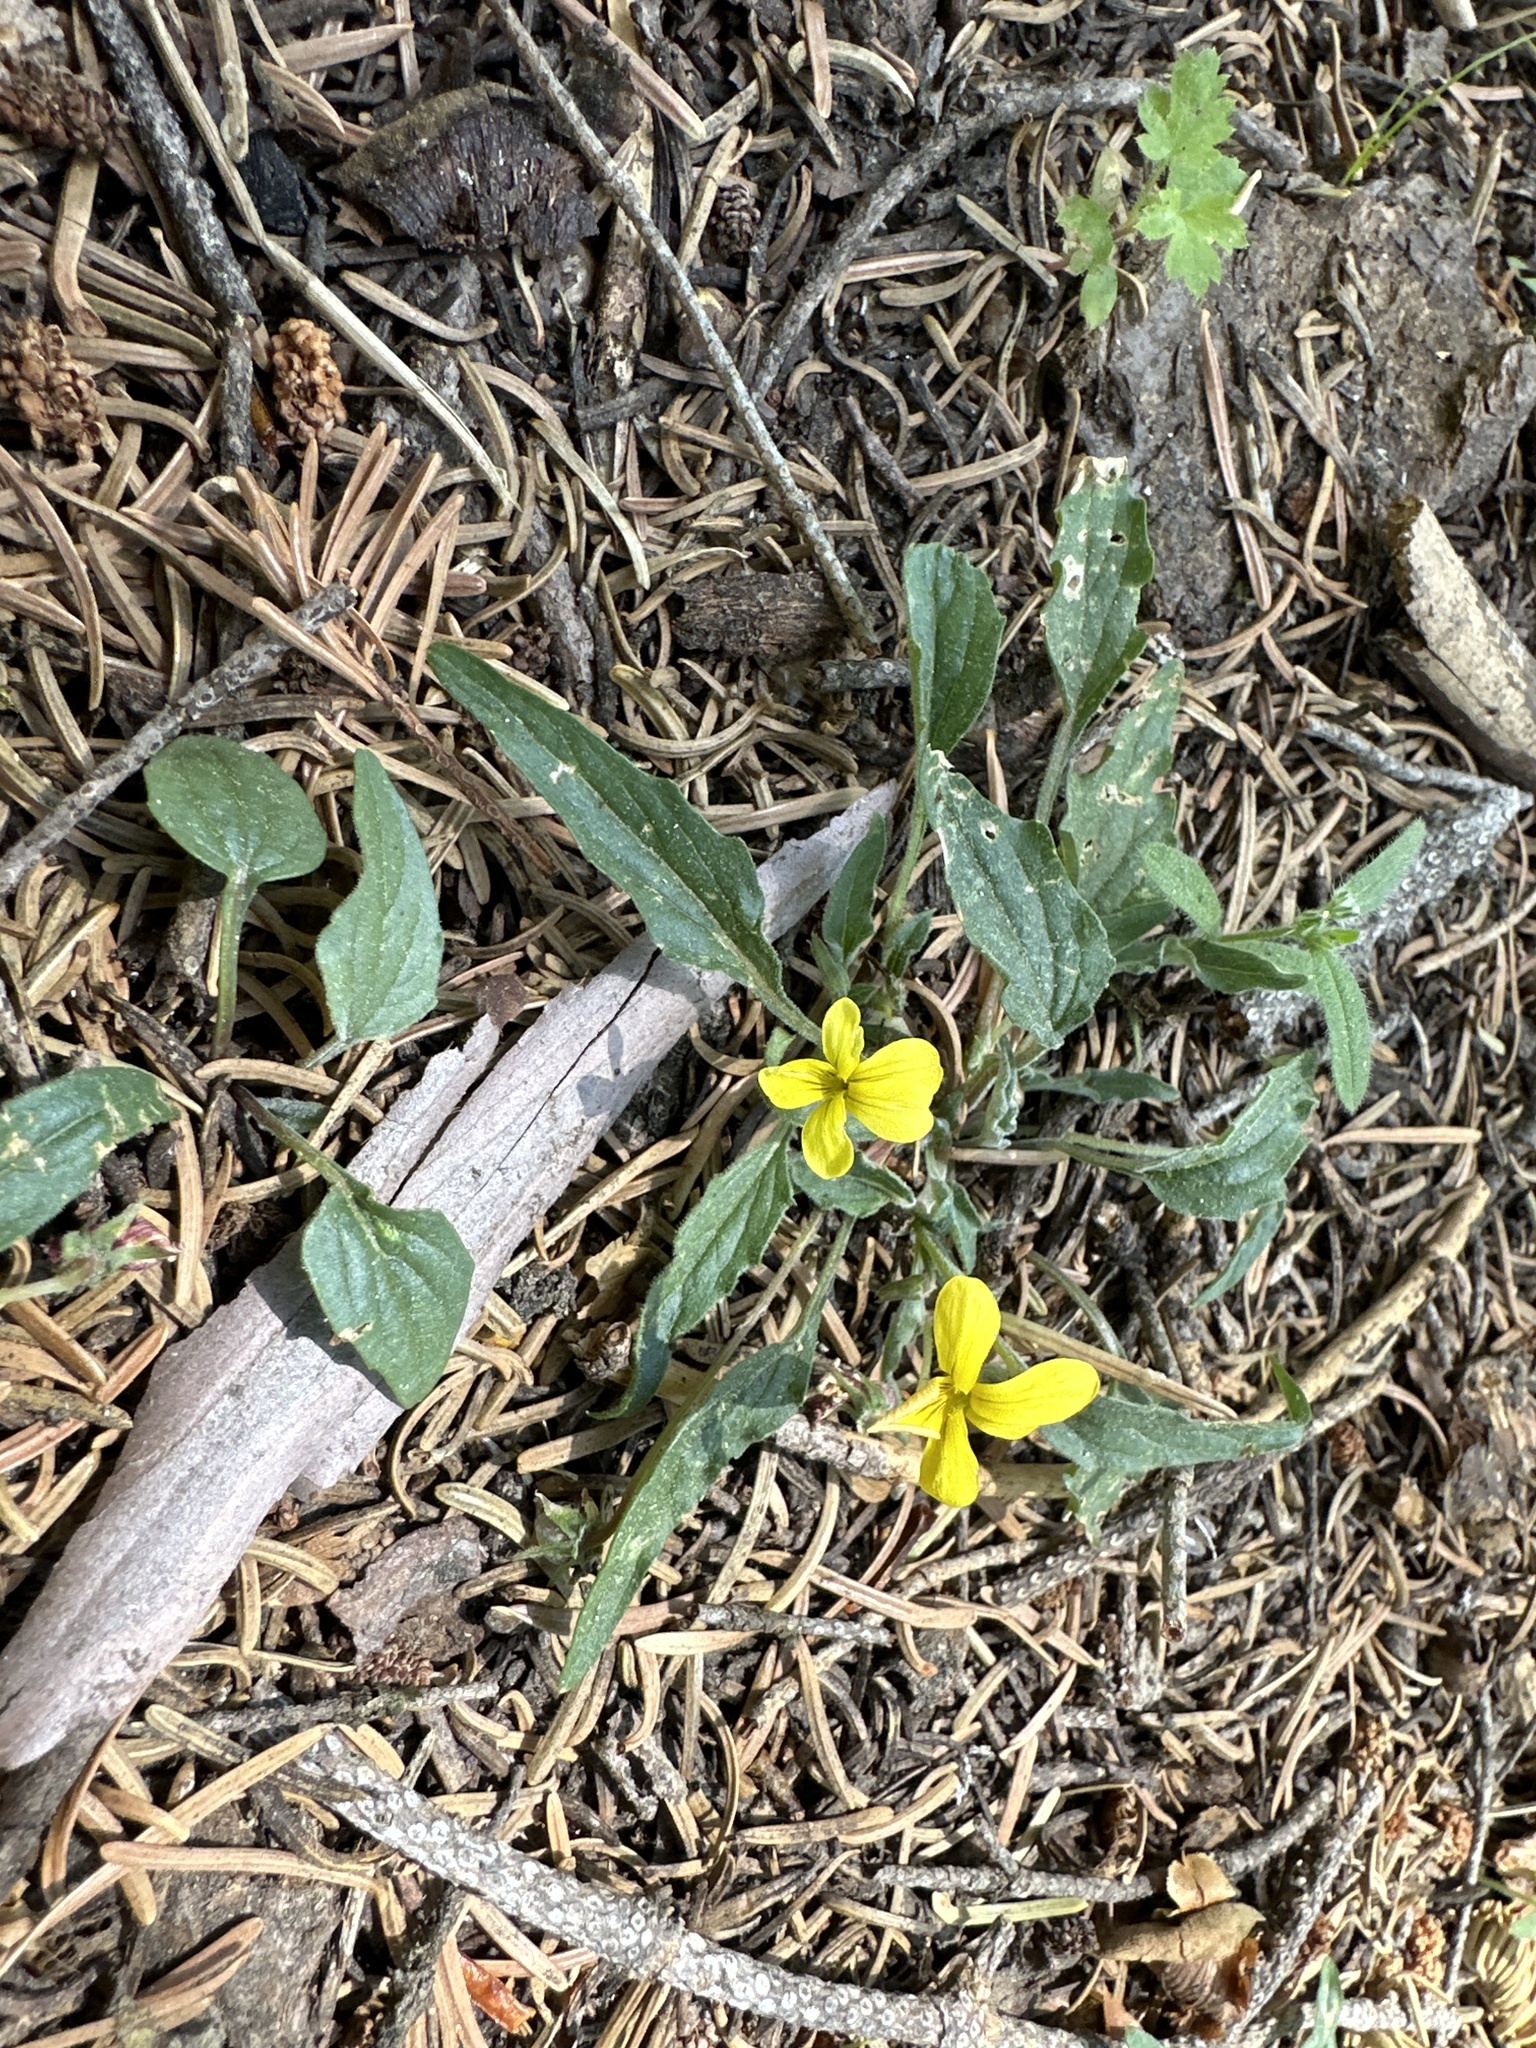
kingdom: Plantae
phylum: Tracheophyta
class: Magnoliopsida
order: Malpighiales
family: Violaceae
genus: Viola
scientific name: Viola pinetorum
